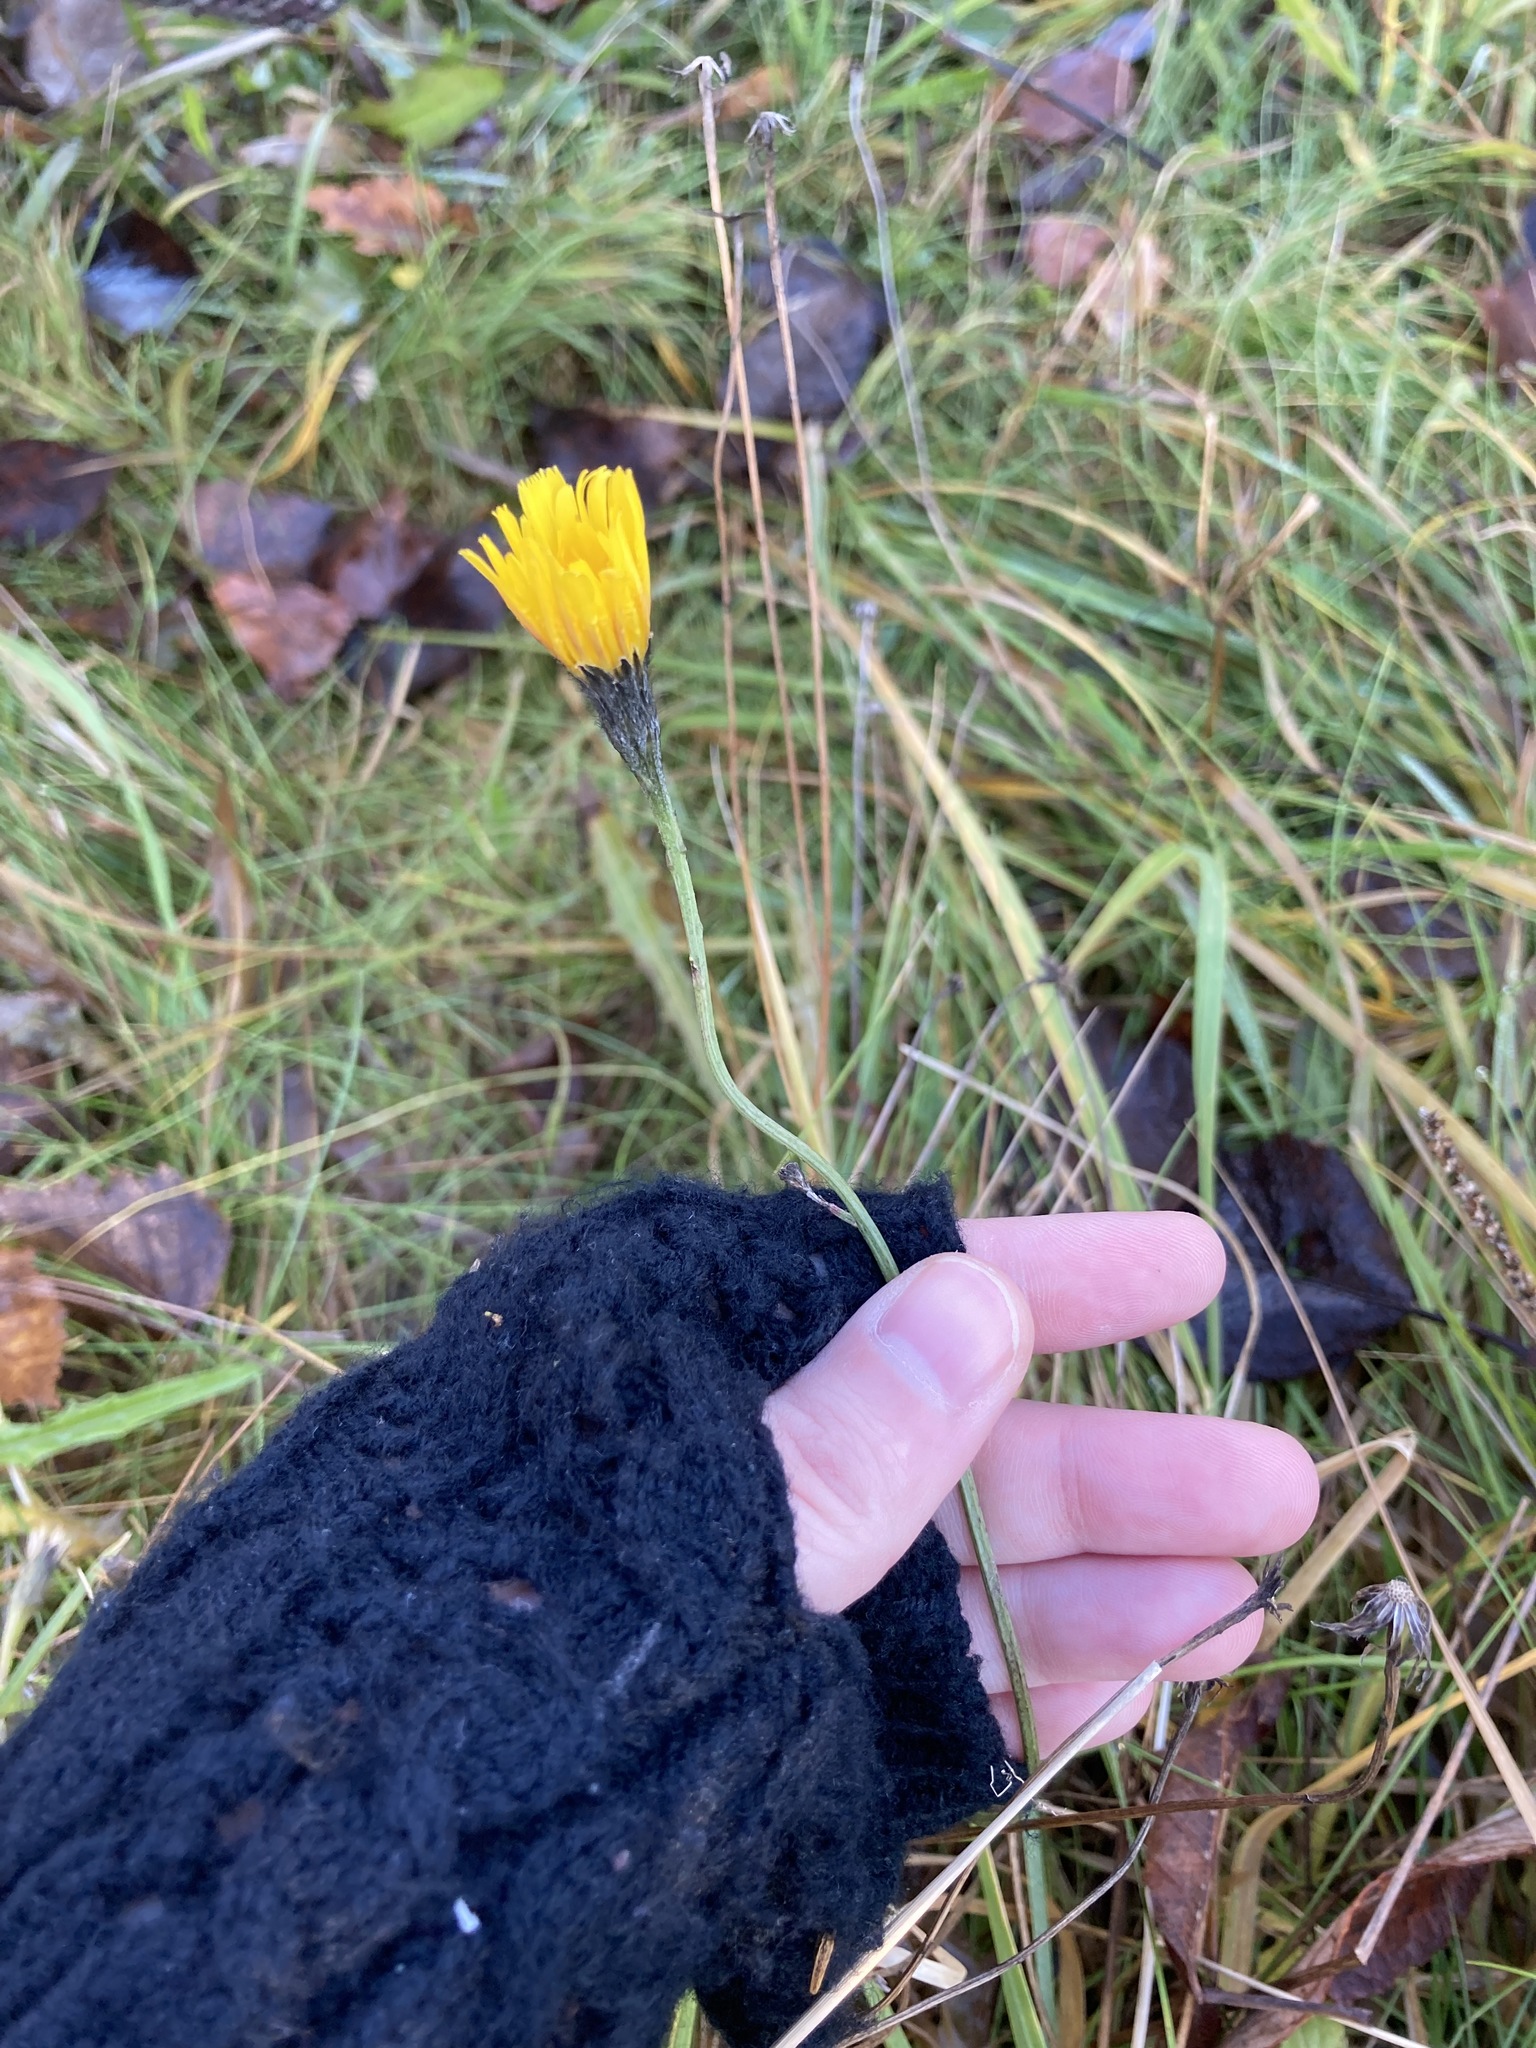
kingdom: Plantae
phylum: Tracheophyta
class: Magnoliopsida
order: Asterales
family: Asteraceae
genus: Scorzoneroides
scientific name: Scorzoneroides autumnalis
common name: Autumn hawkbit
